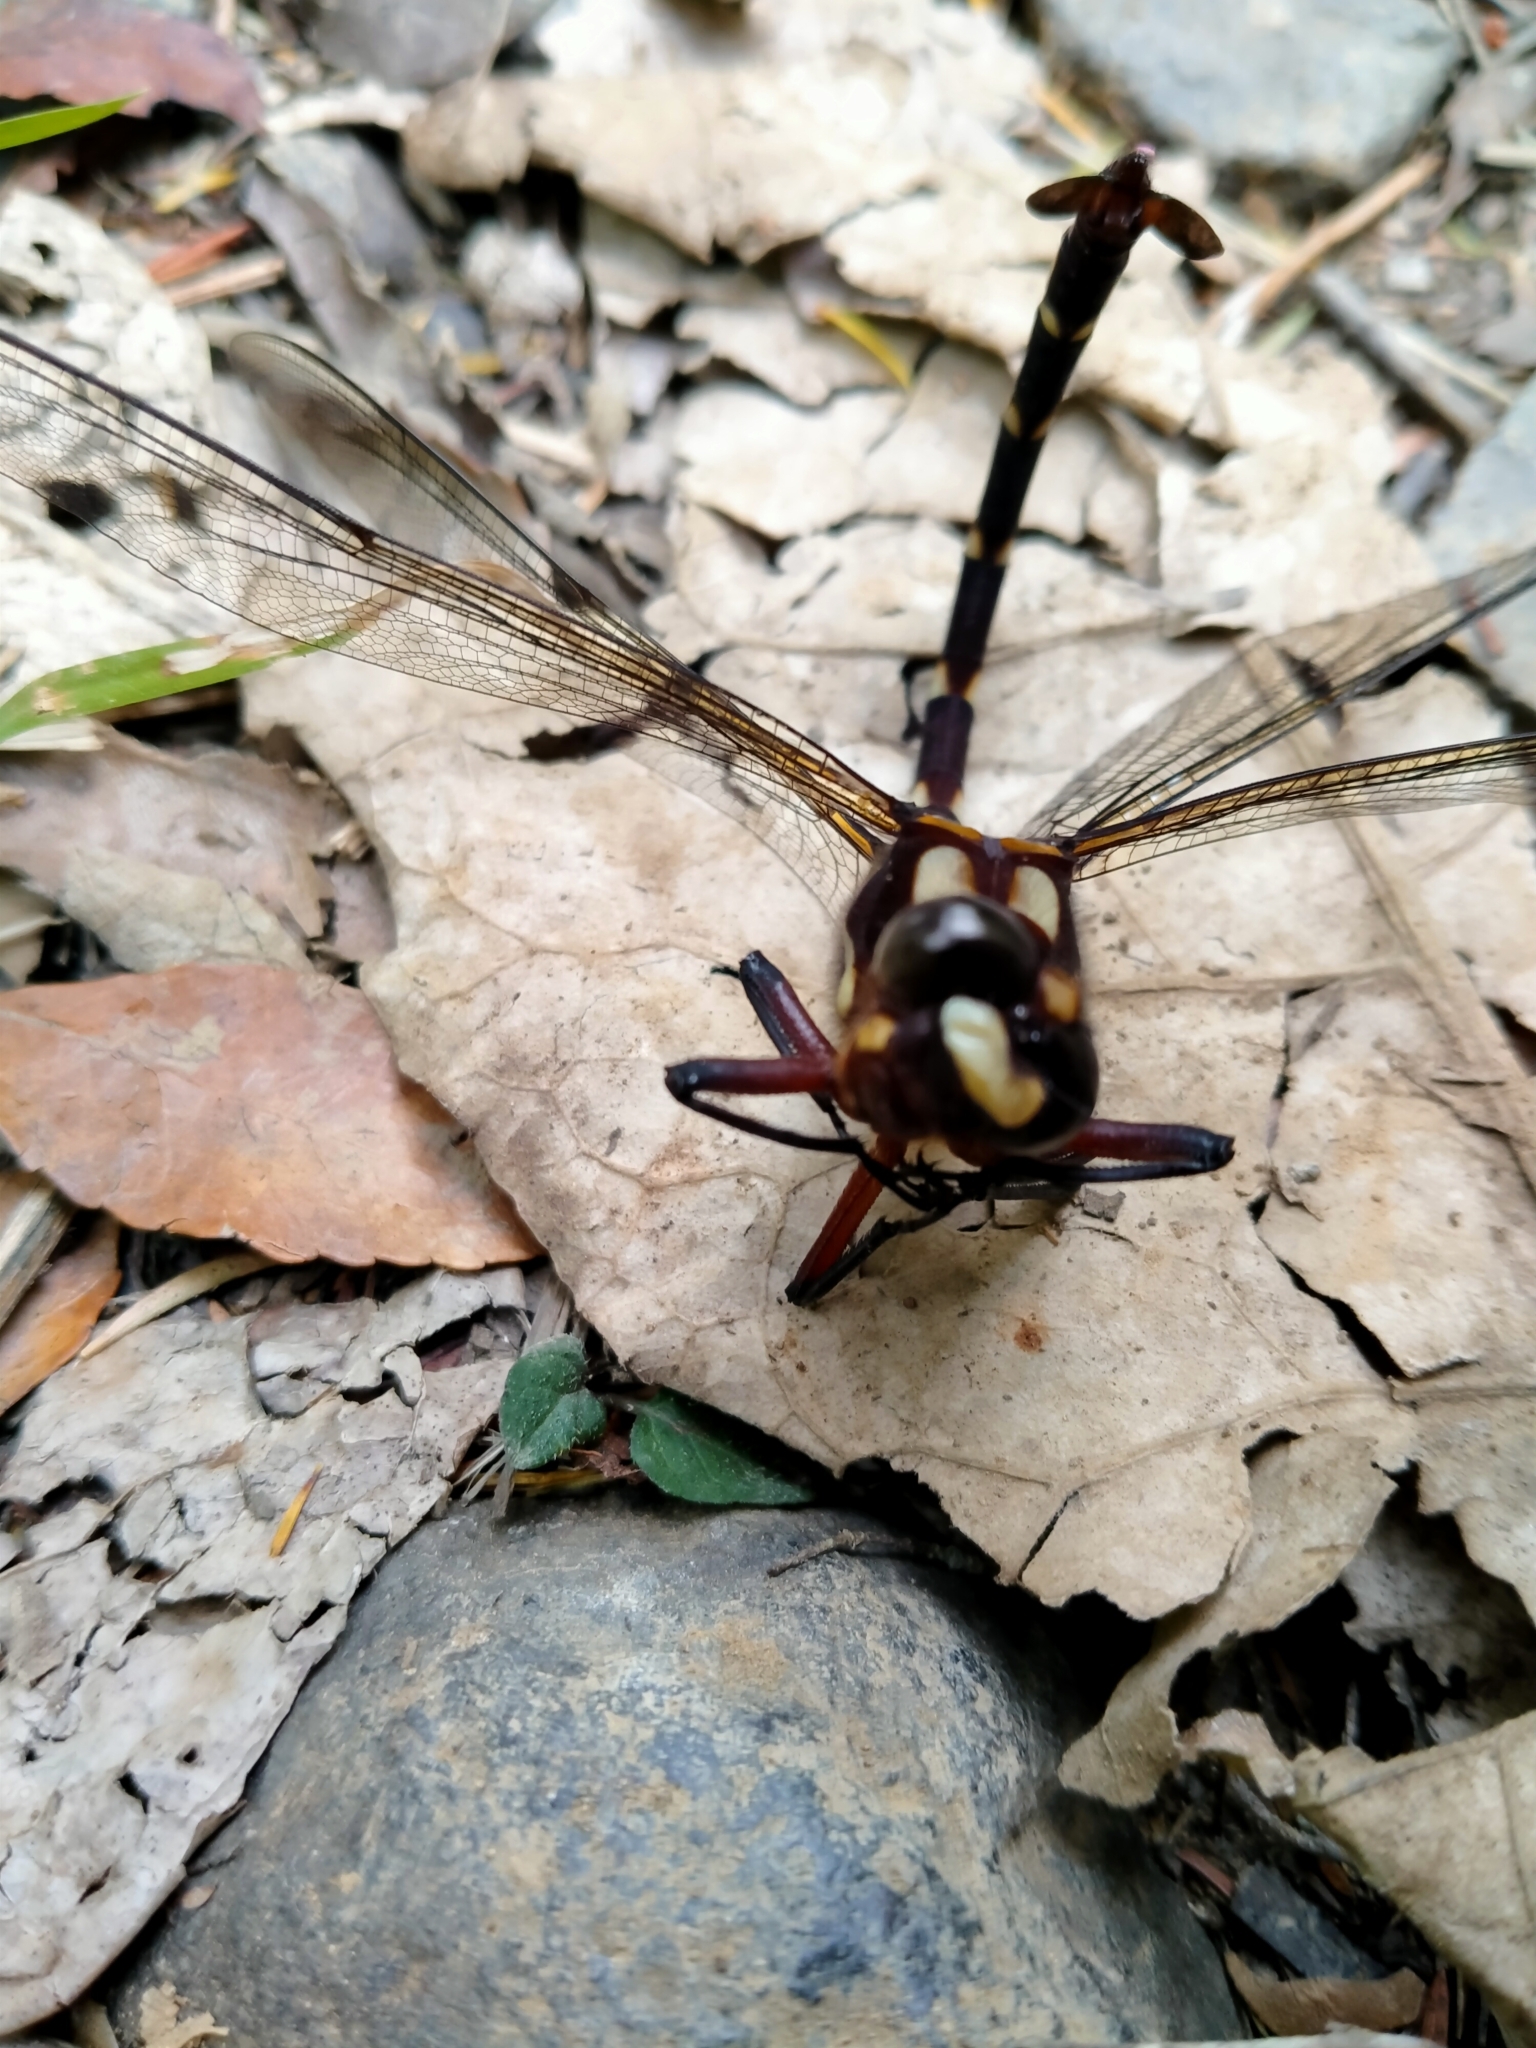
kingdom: Animalia
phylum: Arthropoda
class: Insecta
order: Odonata
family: Petaluridae
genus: Uropetala
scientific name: Uropetala carovei
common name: Bush giant dragonfly
